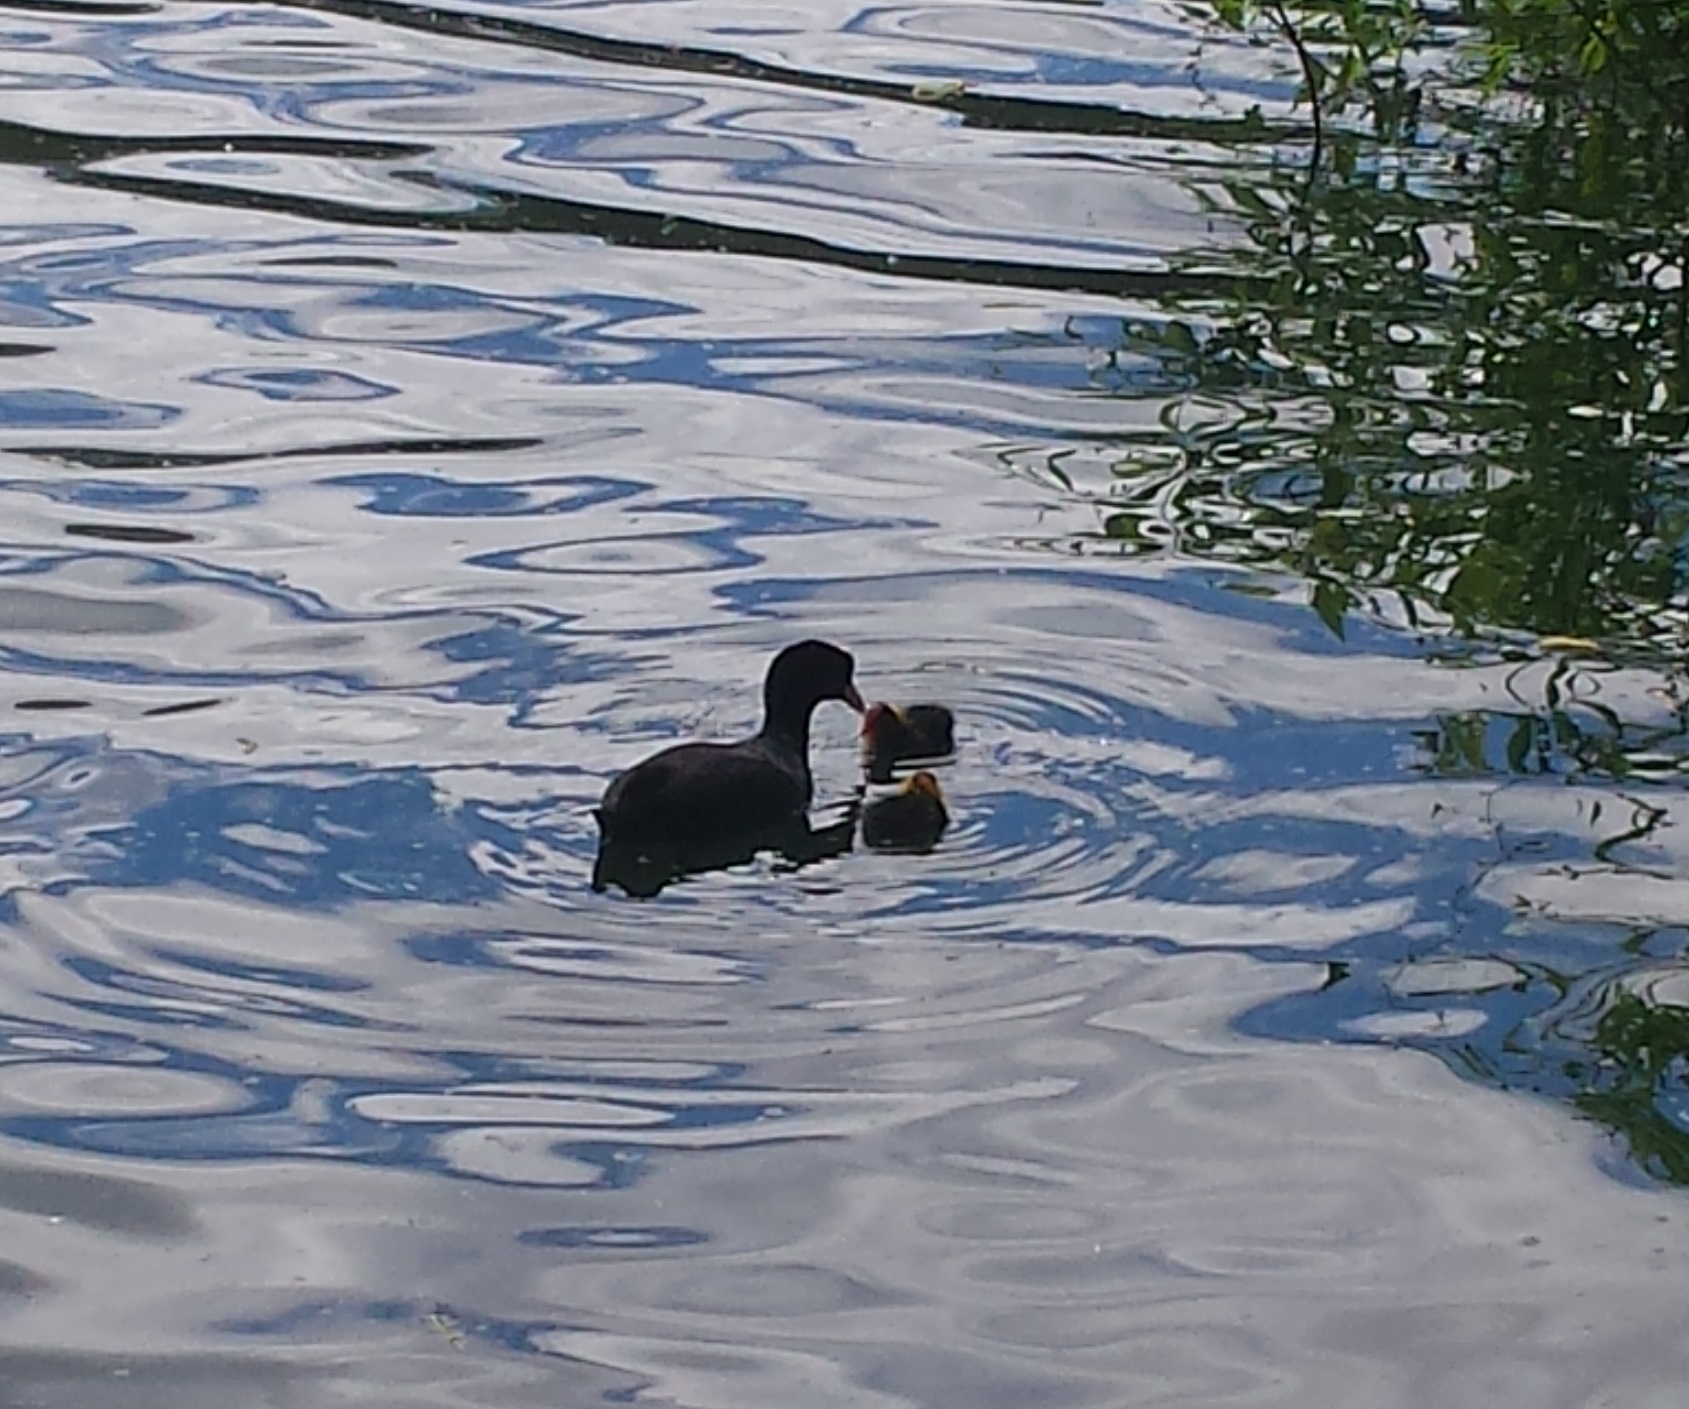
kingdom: Animalia
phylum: Chordata
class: Aves
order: Gruiformes
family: Rallidae
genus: Fulica
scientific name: Fulica atra
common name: Eurasian coot
